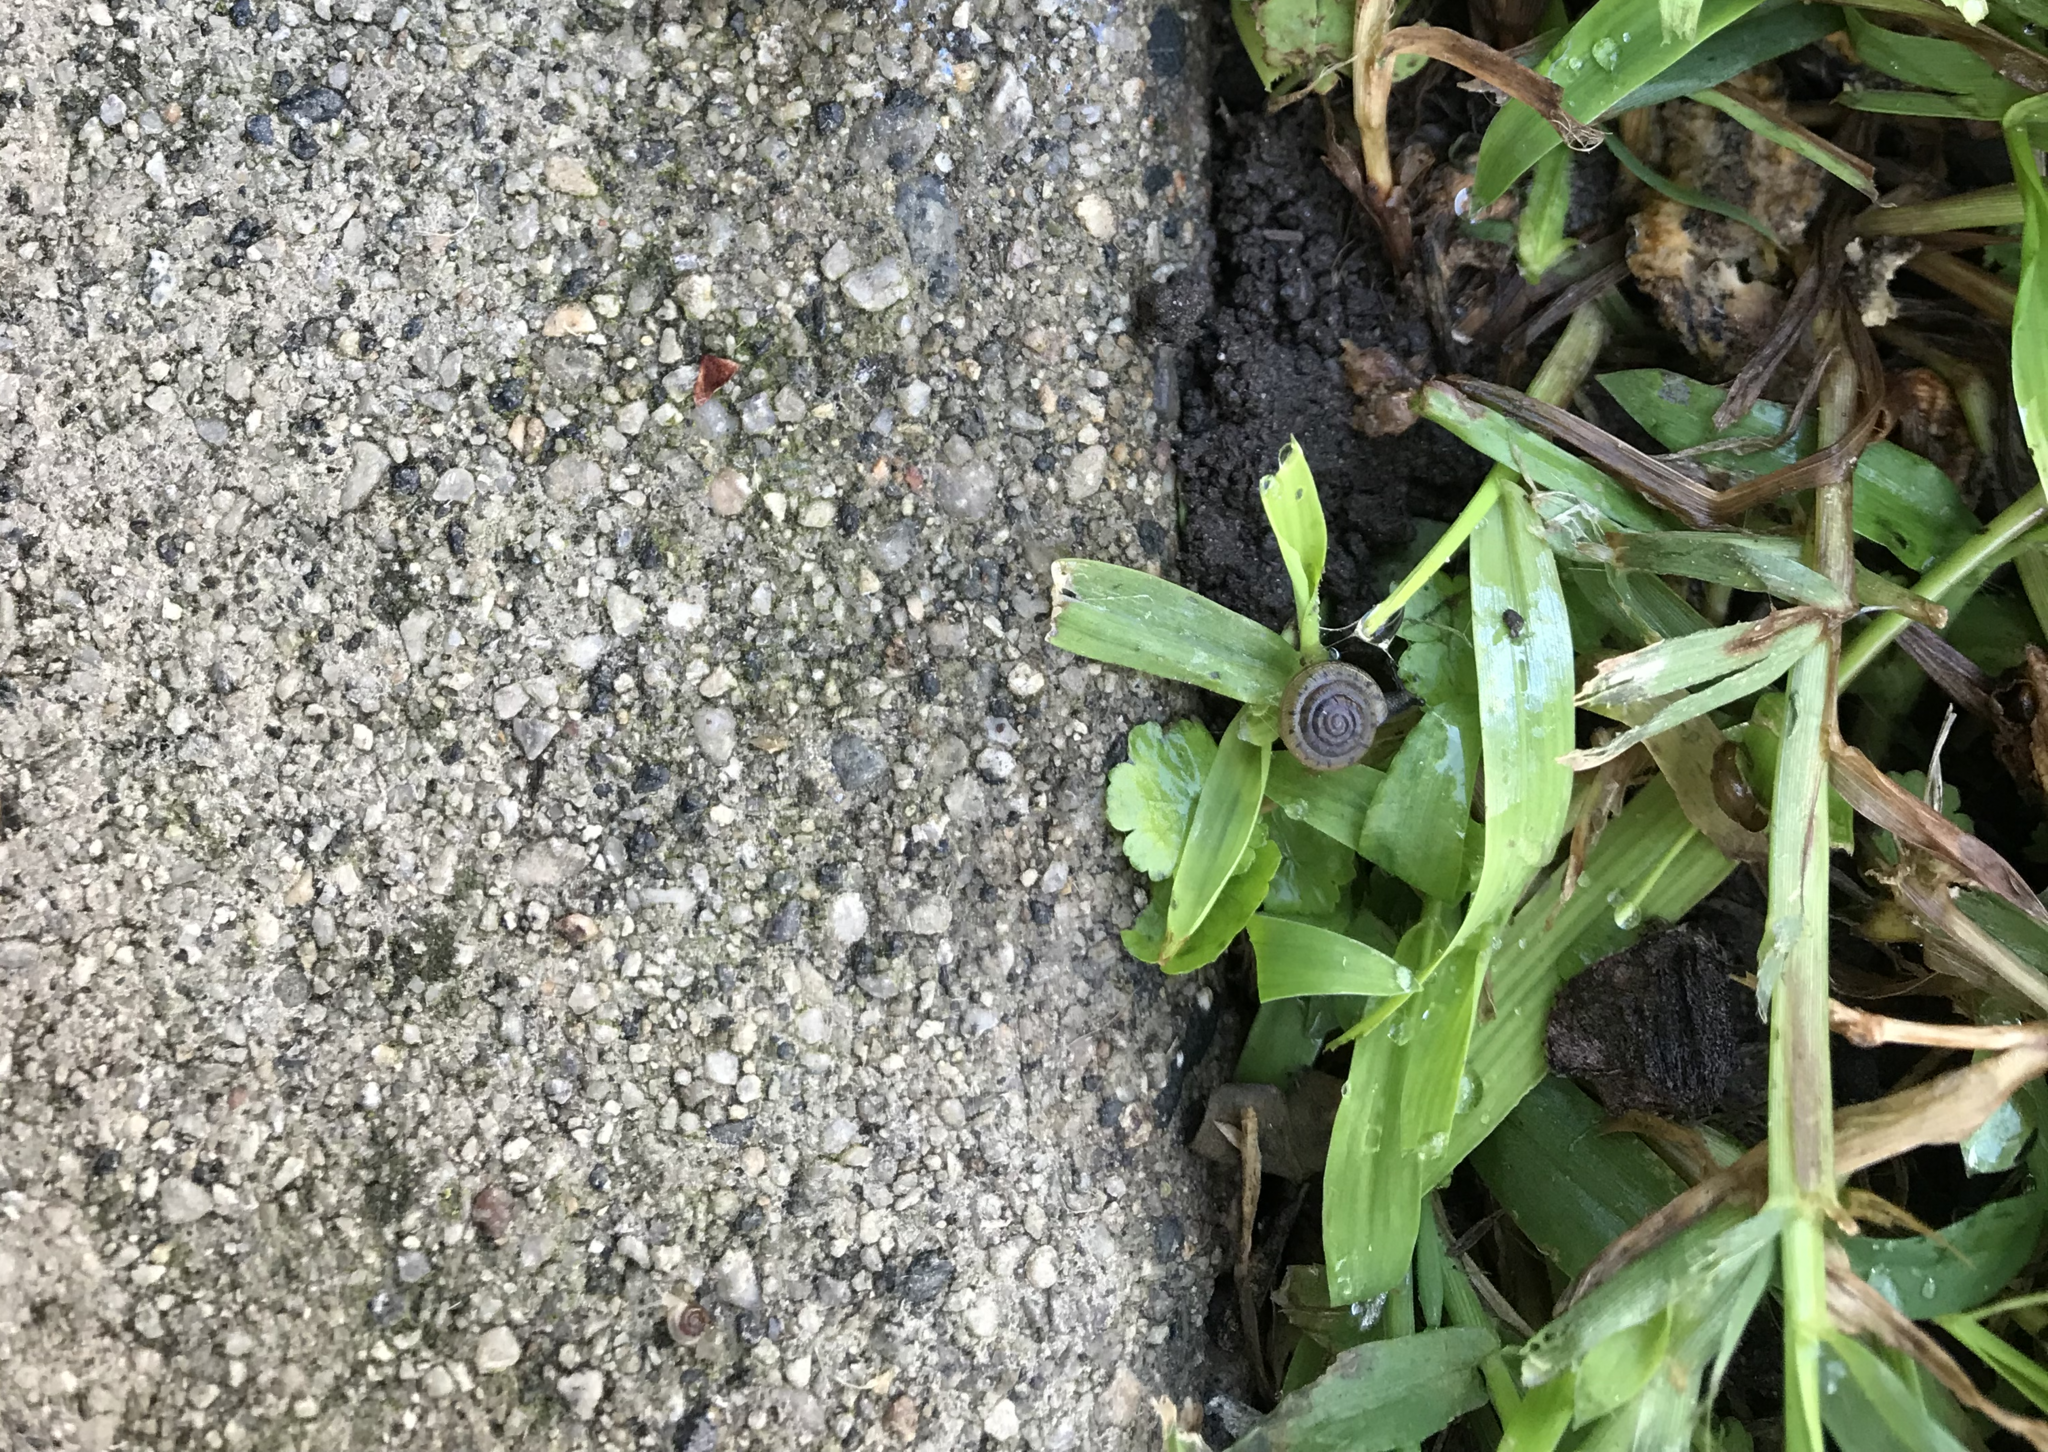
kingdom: Animalia
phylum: Mollusca
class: Gastropoda
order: Stylommatophora
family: Polygyridae
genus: Polygyra
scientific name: Polygyra cereolus
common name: Southern flatcone snail
